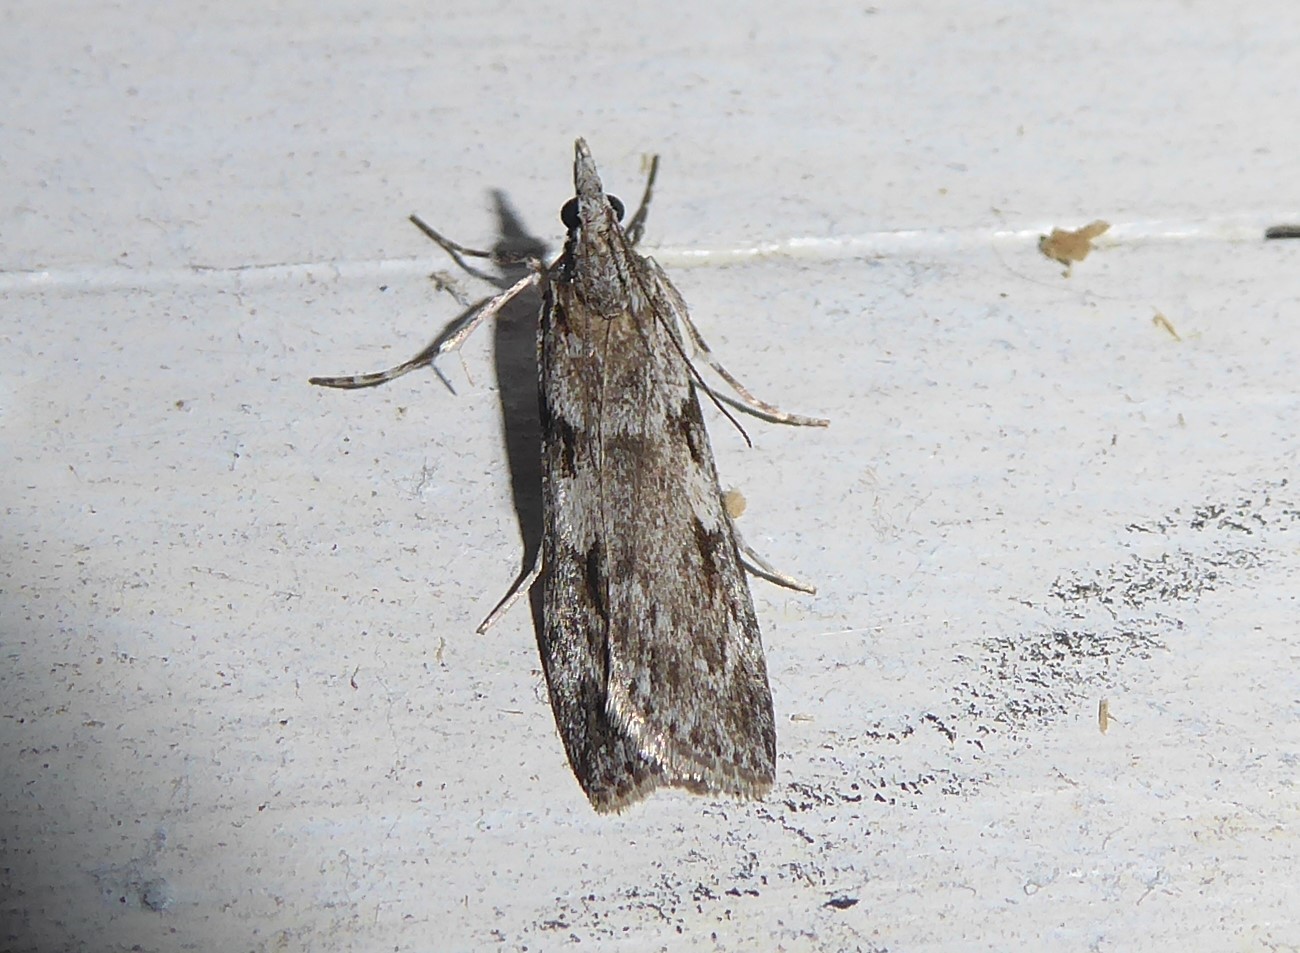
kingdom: Animalia
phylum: Arthropoda
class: Insecta
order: Lepidoptera
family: Crambidae
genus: Scoparia
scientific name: Scoparia halopis
